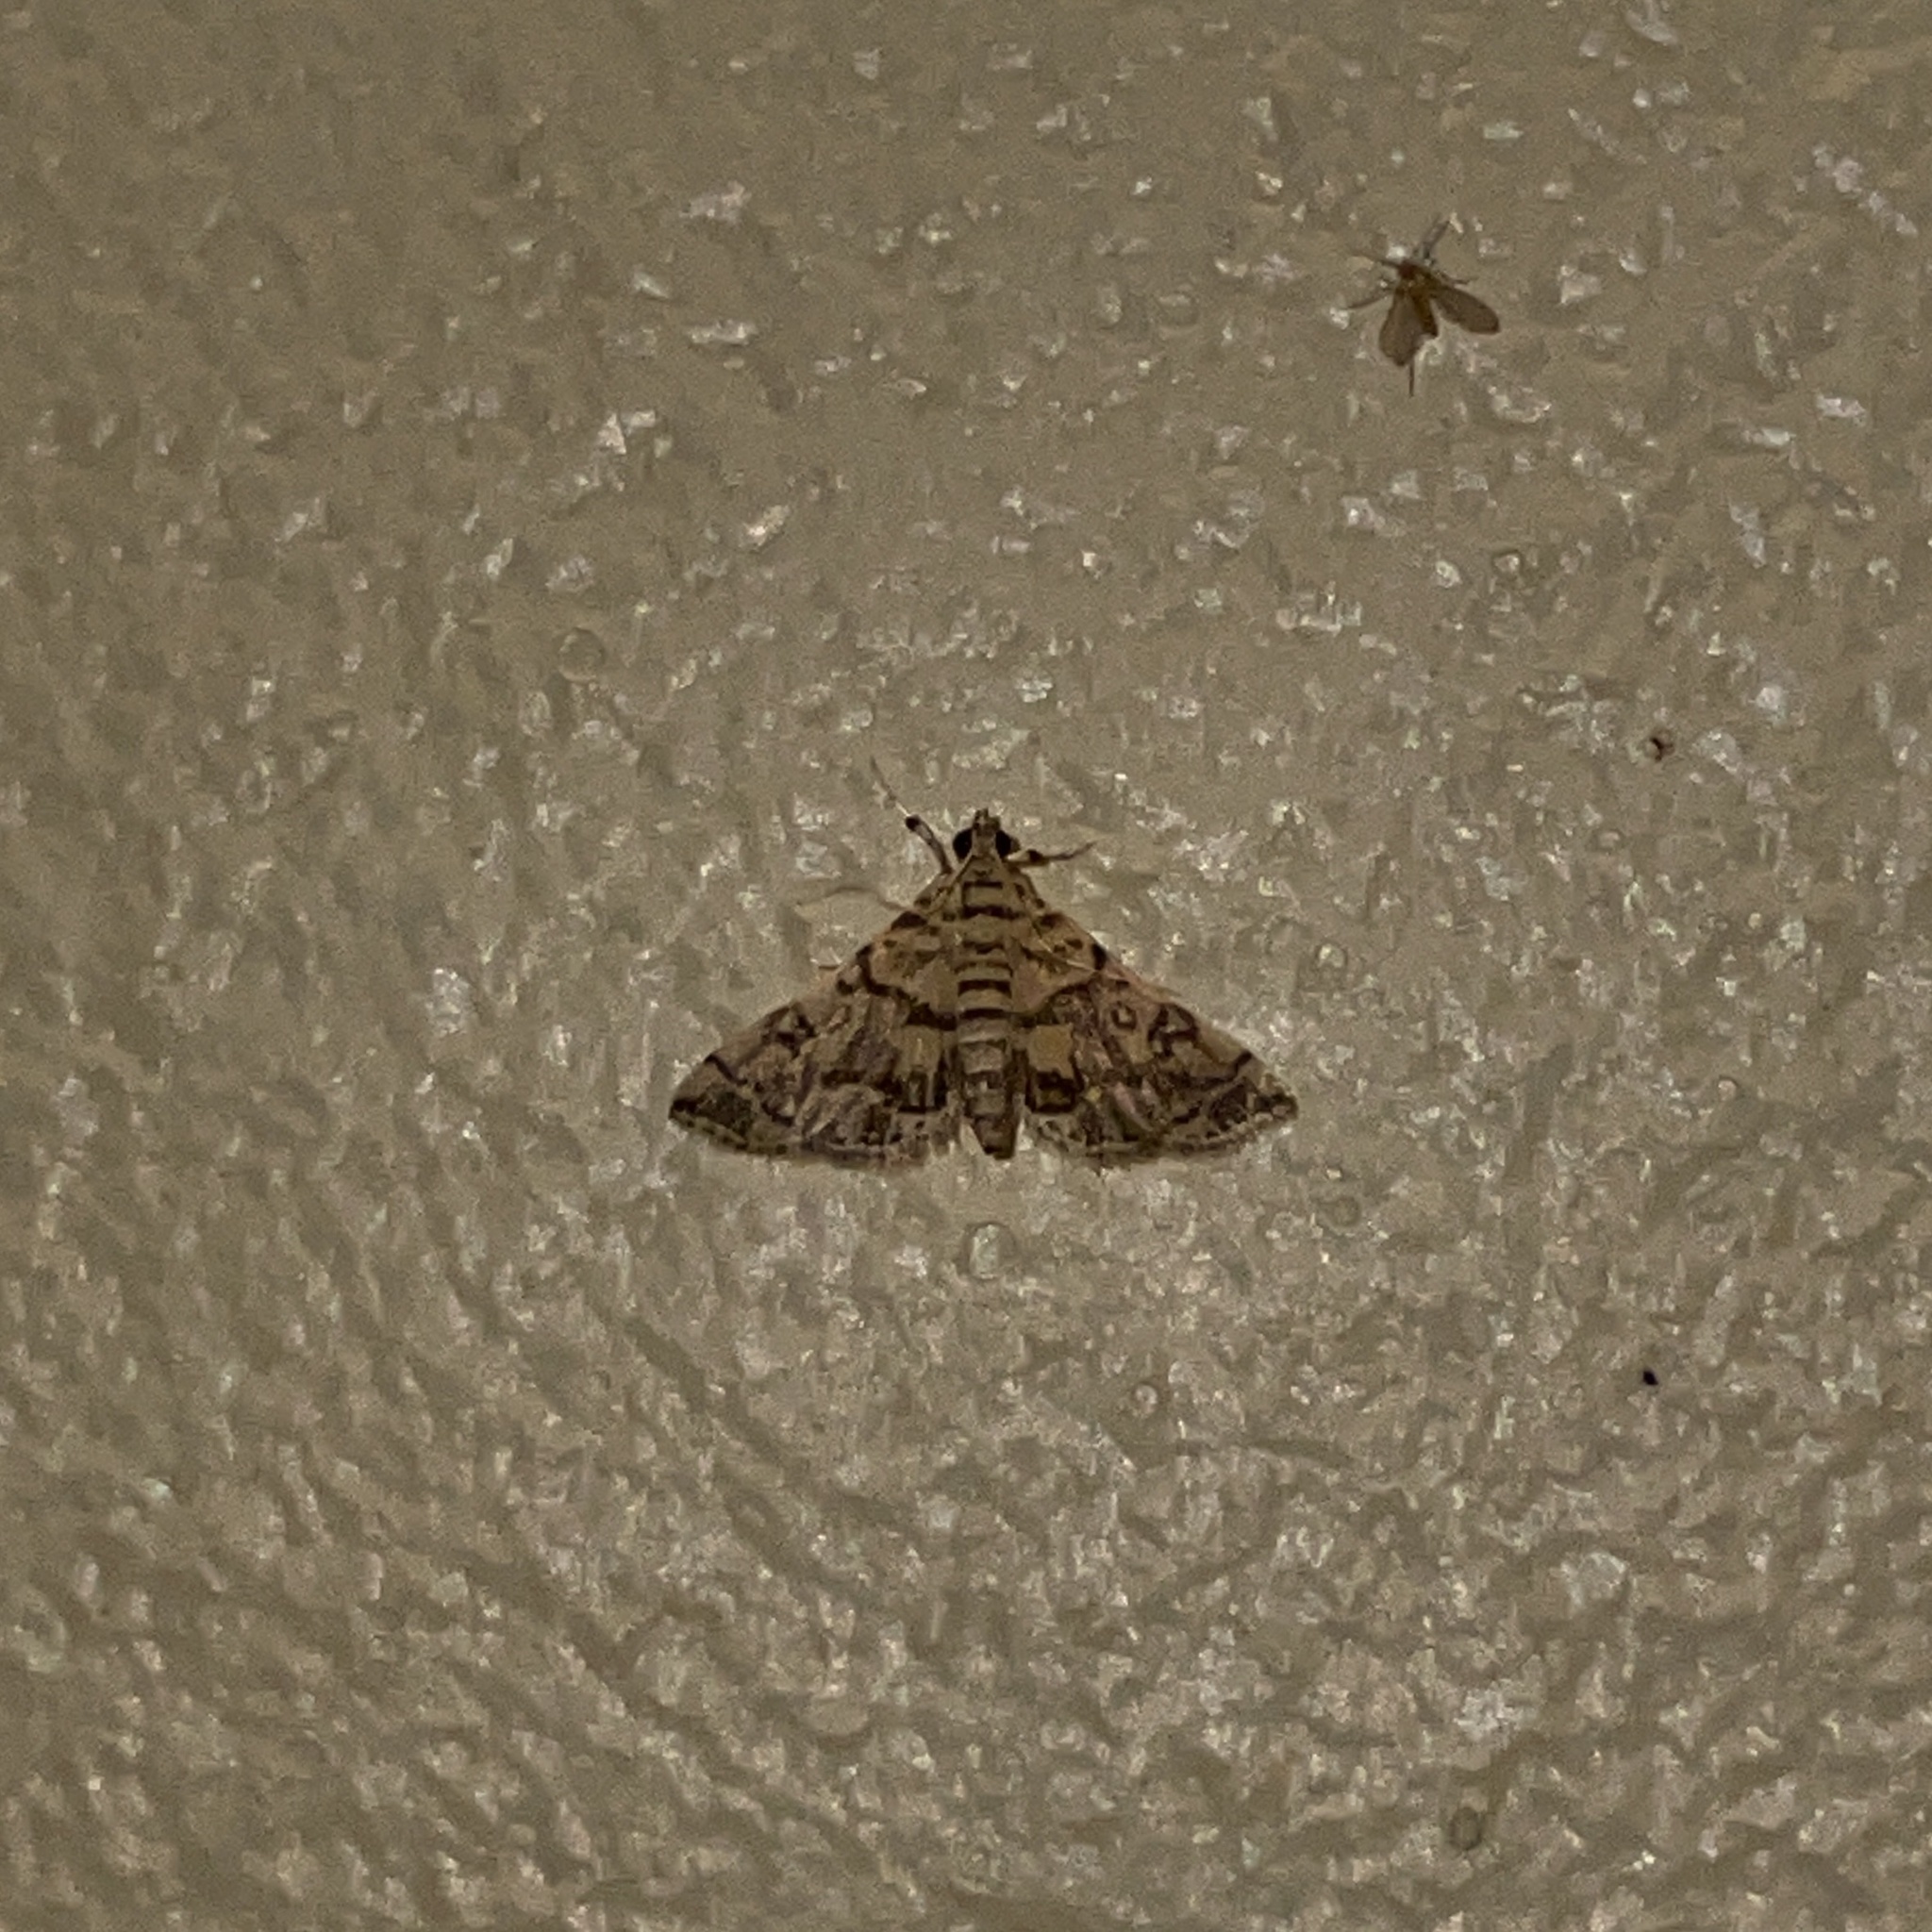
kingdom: Animalia
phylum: Arthropoda
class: Insecta
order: Lepidoptera
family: Crambidae
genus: Apogeshna
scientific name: Apogeshna stenialis
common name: Checkered apogeshna moth
